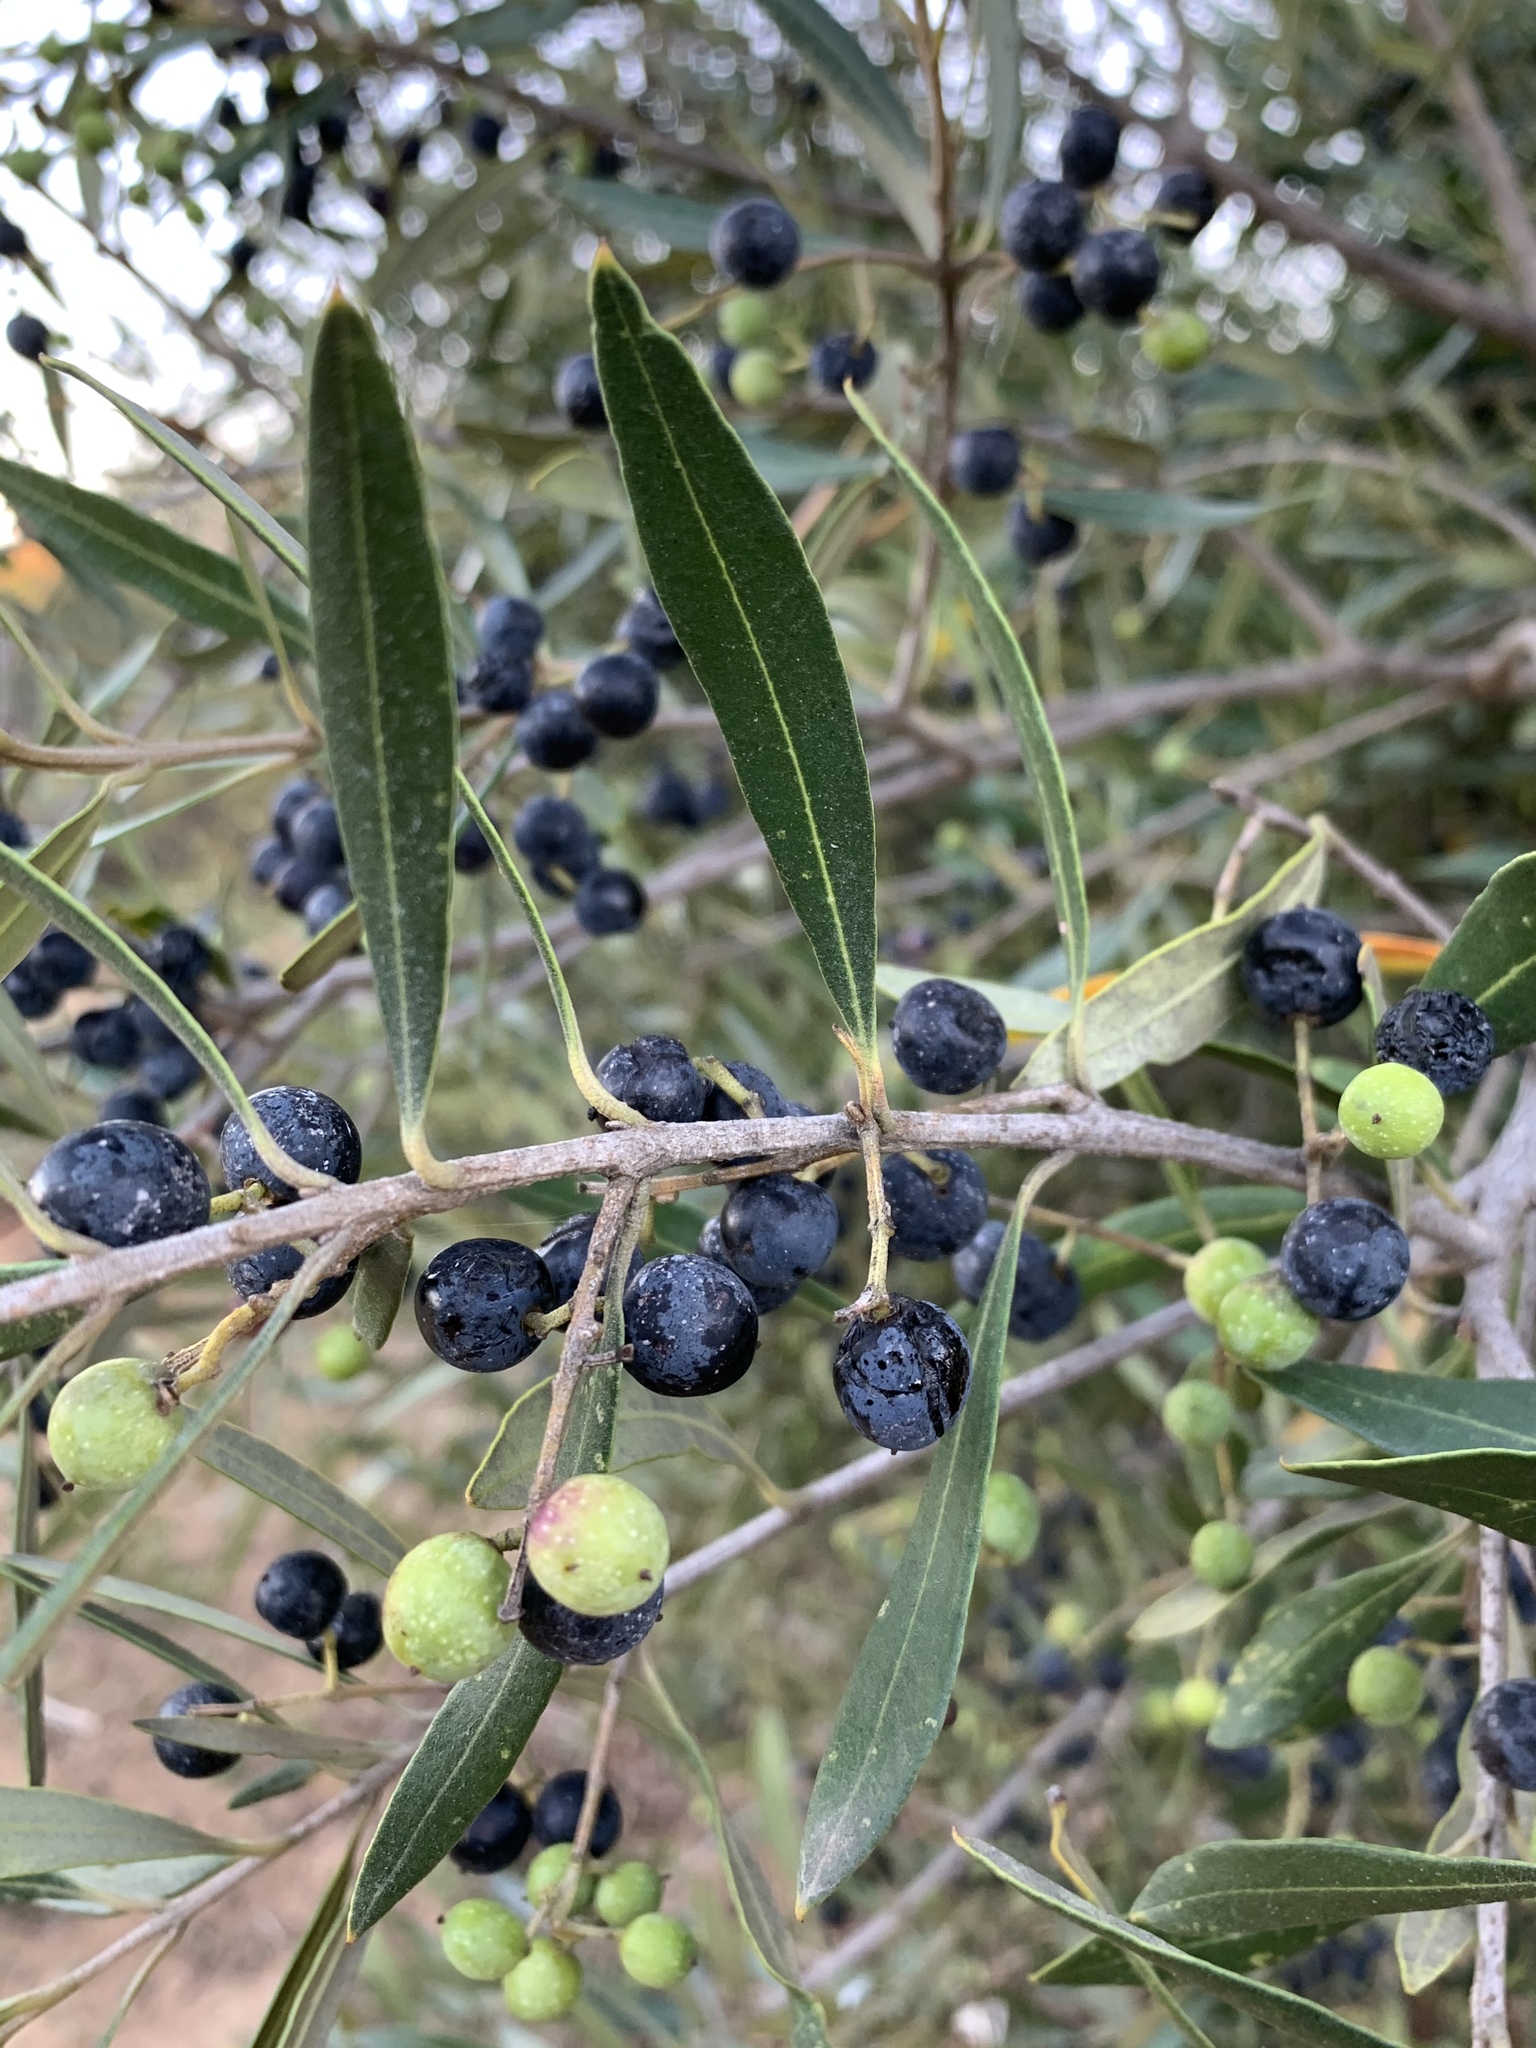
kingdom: Plantae
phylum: Tracheophyta
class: Magnoliopsida
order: Lamiales
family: Oleaceae
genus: Olea
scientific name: Olea europaea
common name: Olive
